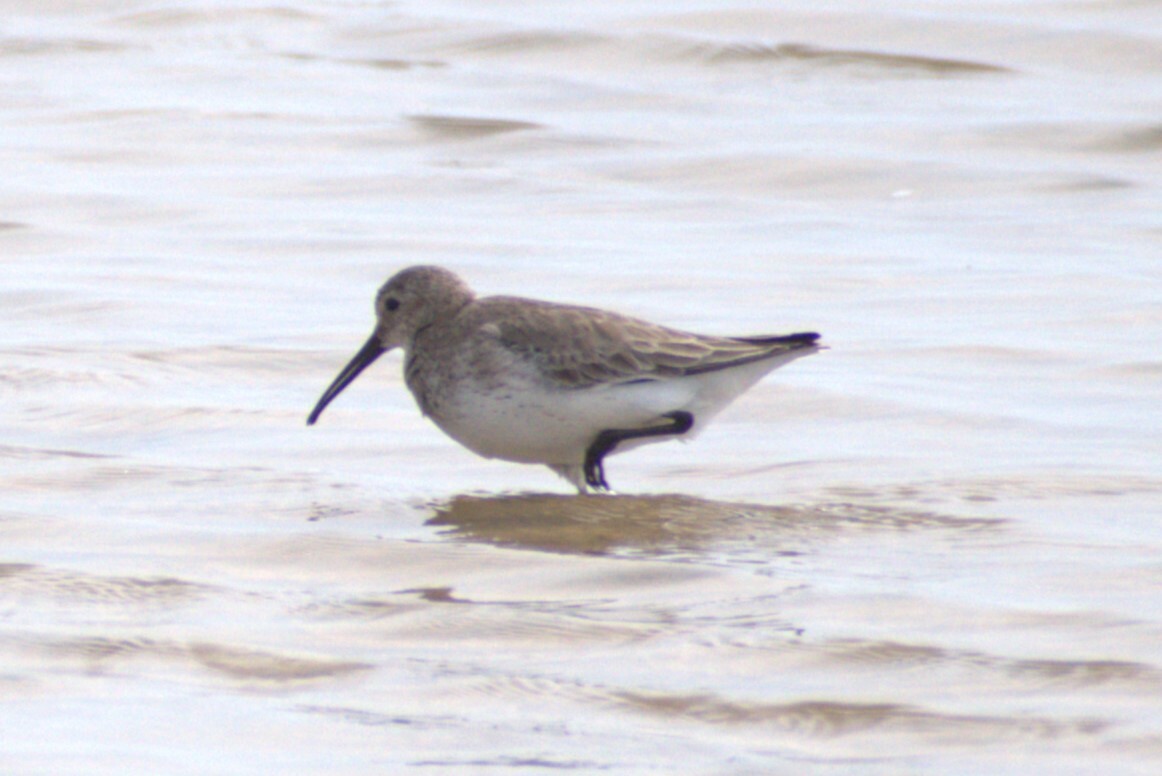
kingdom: Animalia
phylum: Chordata
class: Aves
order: Charadriiformes
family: Scolopacidae
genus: Calidris
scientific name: Calidris alpina
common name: Dunlin
